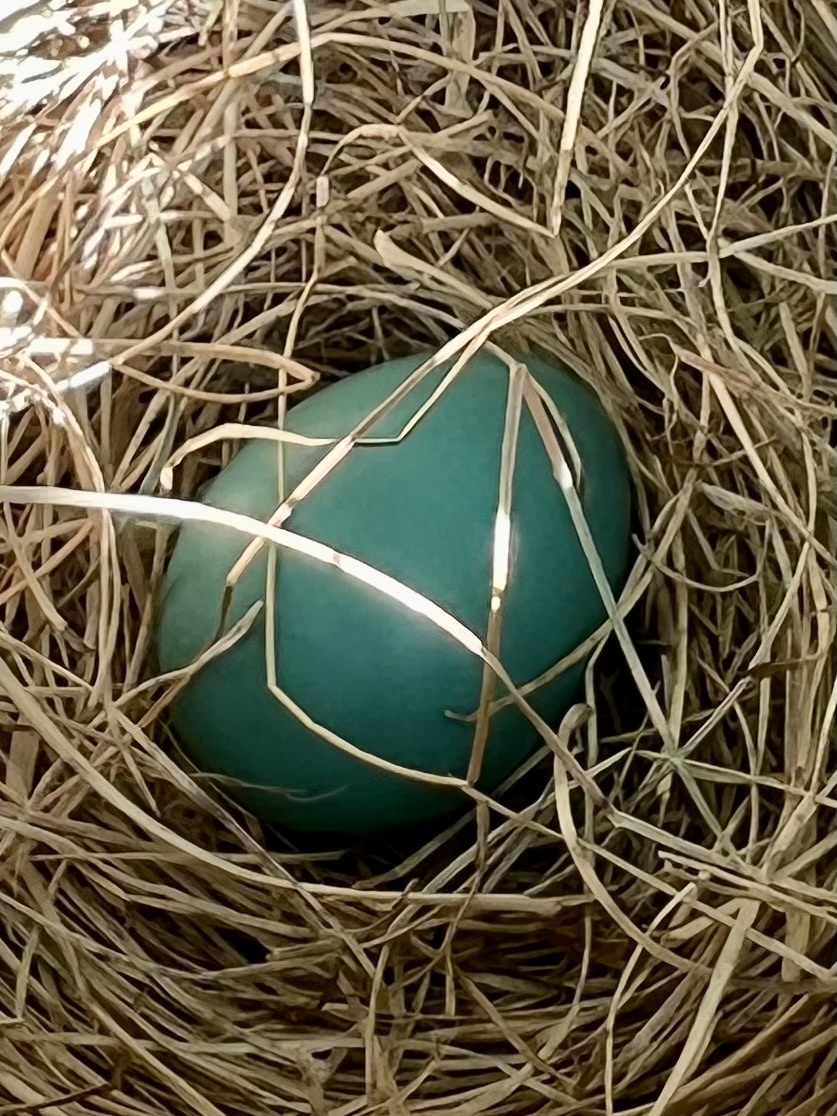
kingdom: Animalia
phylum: Chordata
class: Aves
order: Passeriformes
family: Turdidae
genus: Turdus
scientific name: Turdus migratorius
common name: American robin
